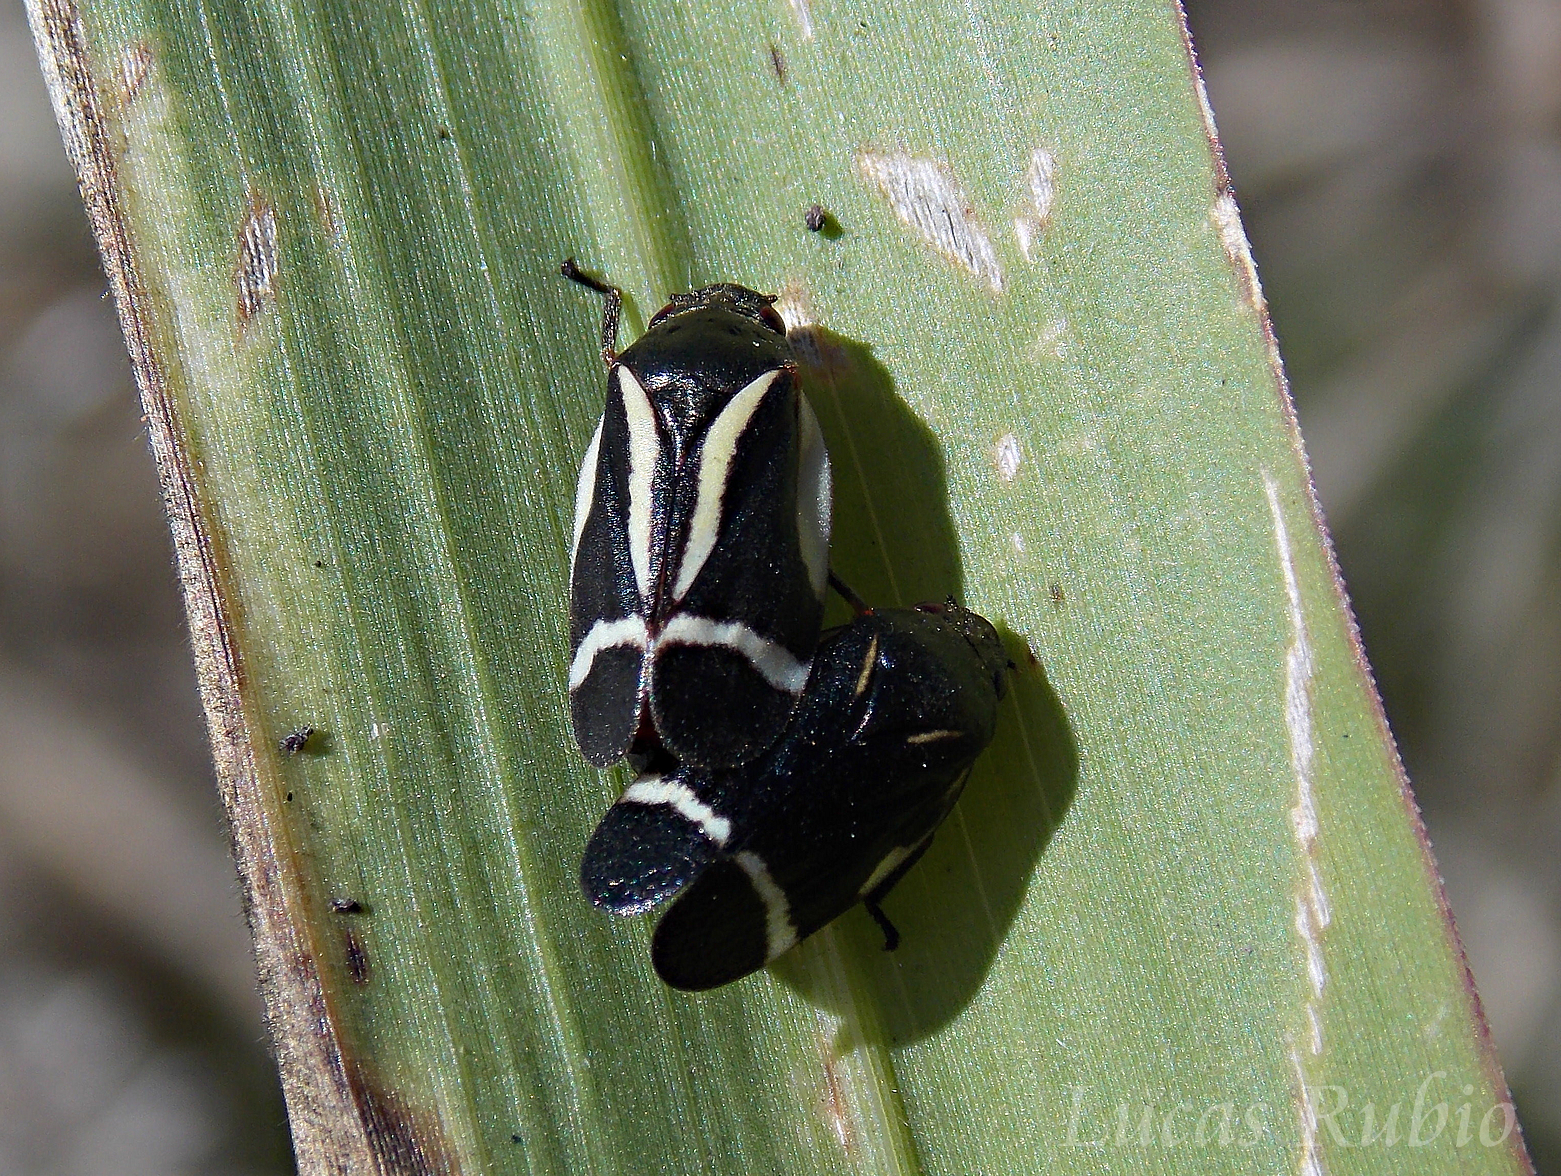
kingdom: Animalia
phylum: Arthropoda
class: Insecta
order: Hemiptera
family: Cercopidae
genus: Notozulia
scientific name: Notozulia entreriana
